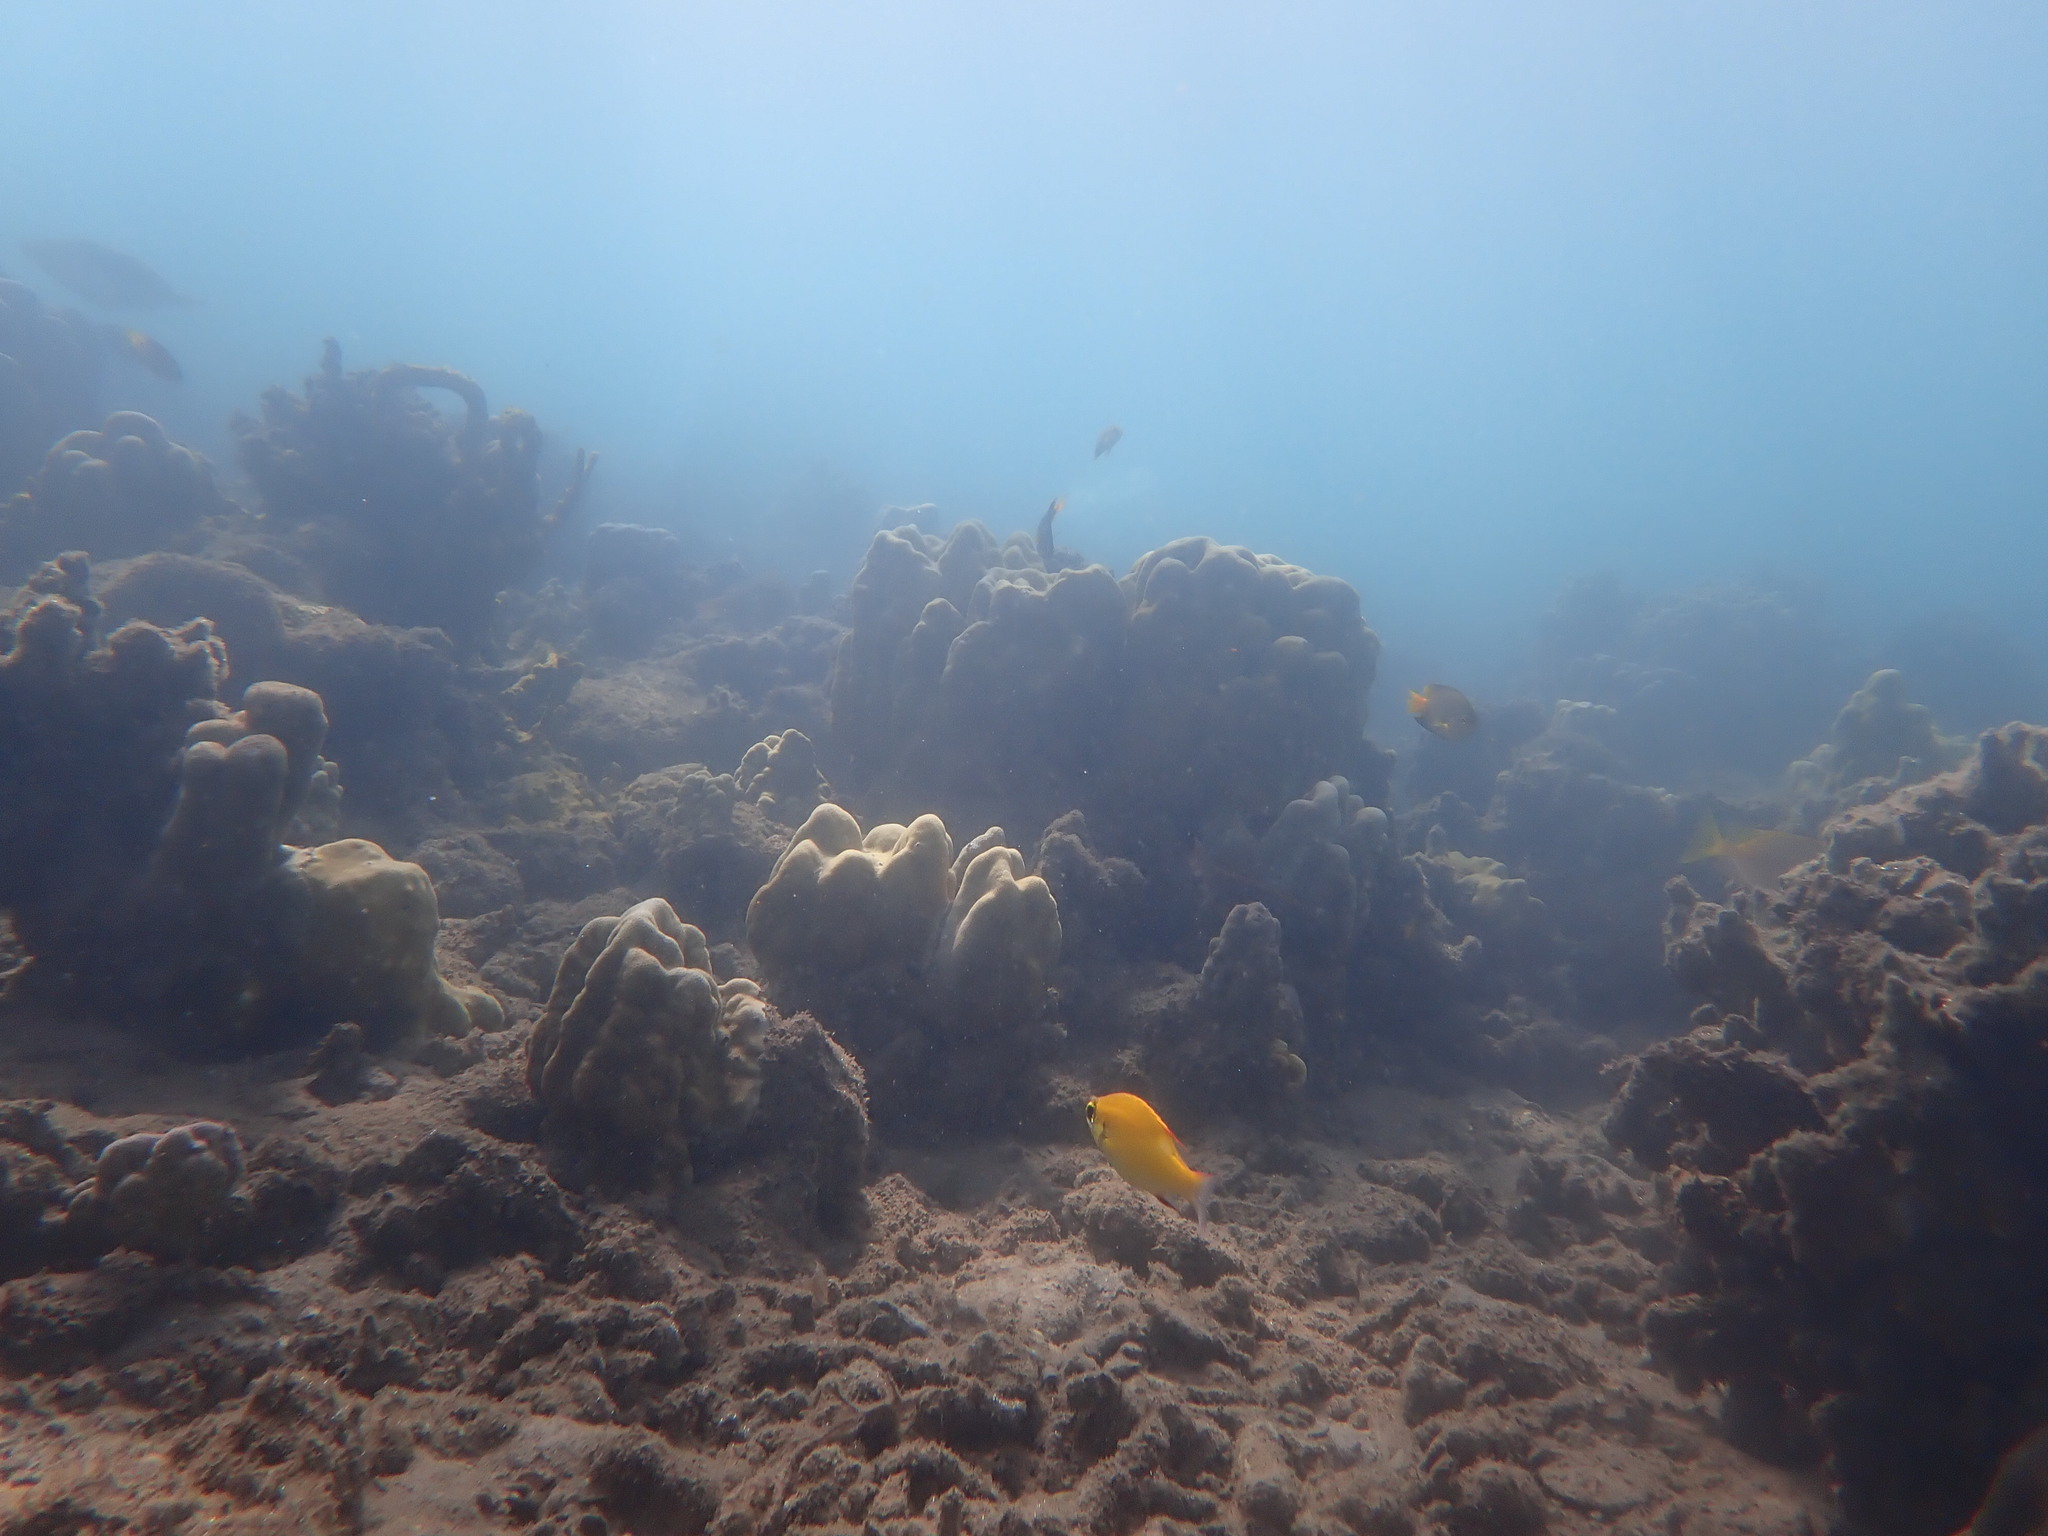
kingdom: Animalia
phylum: Chordata
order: Perciformes
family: Nemipteridae
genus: Scolopsis
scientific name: Scolopsis bilineata
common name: Two-lined monocle bream
